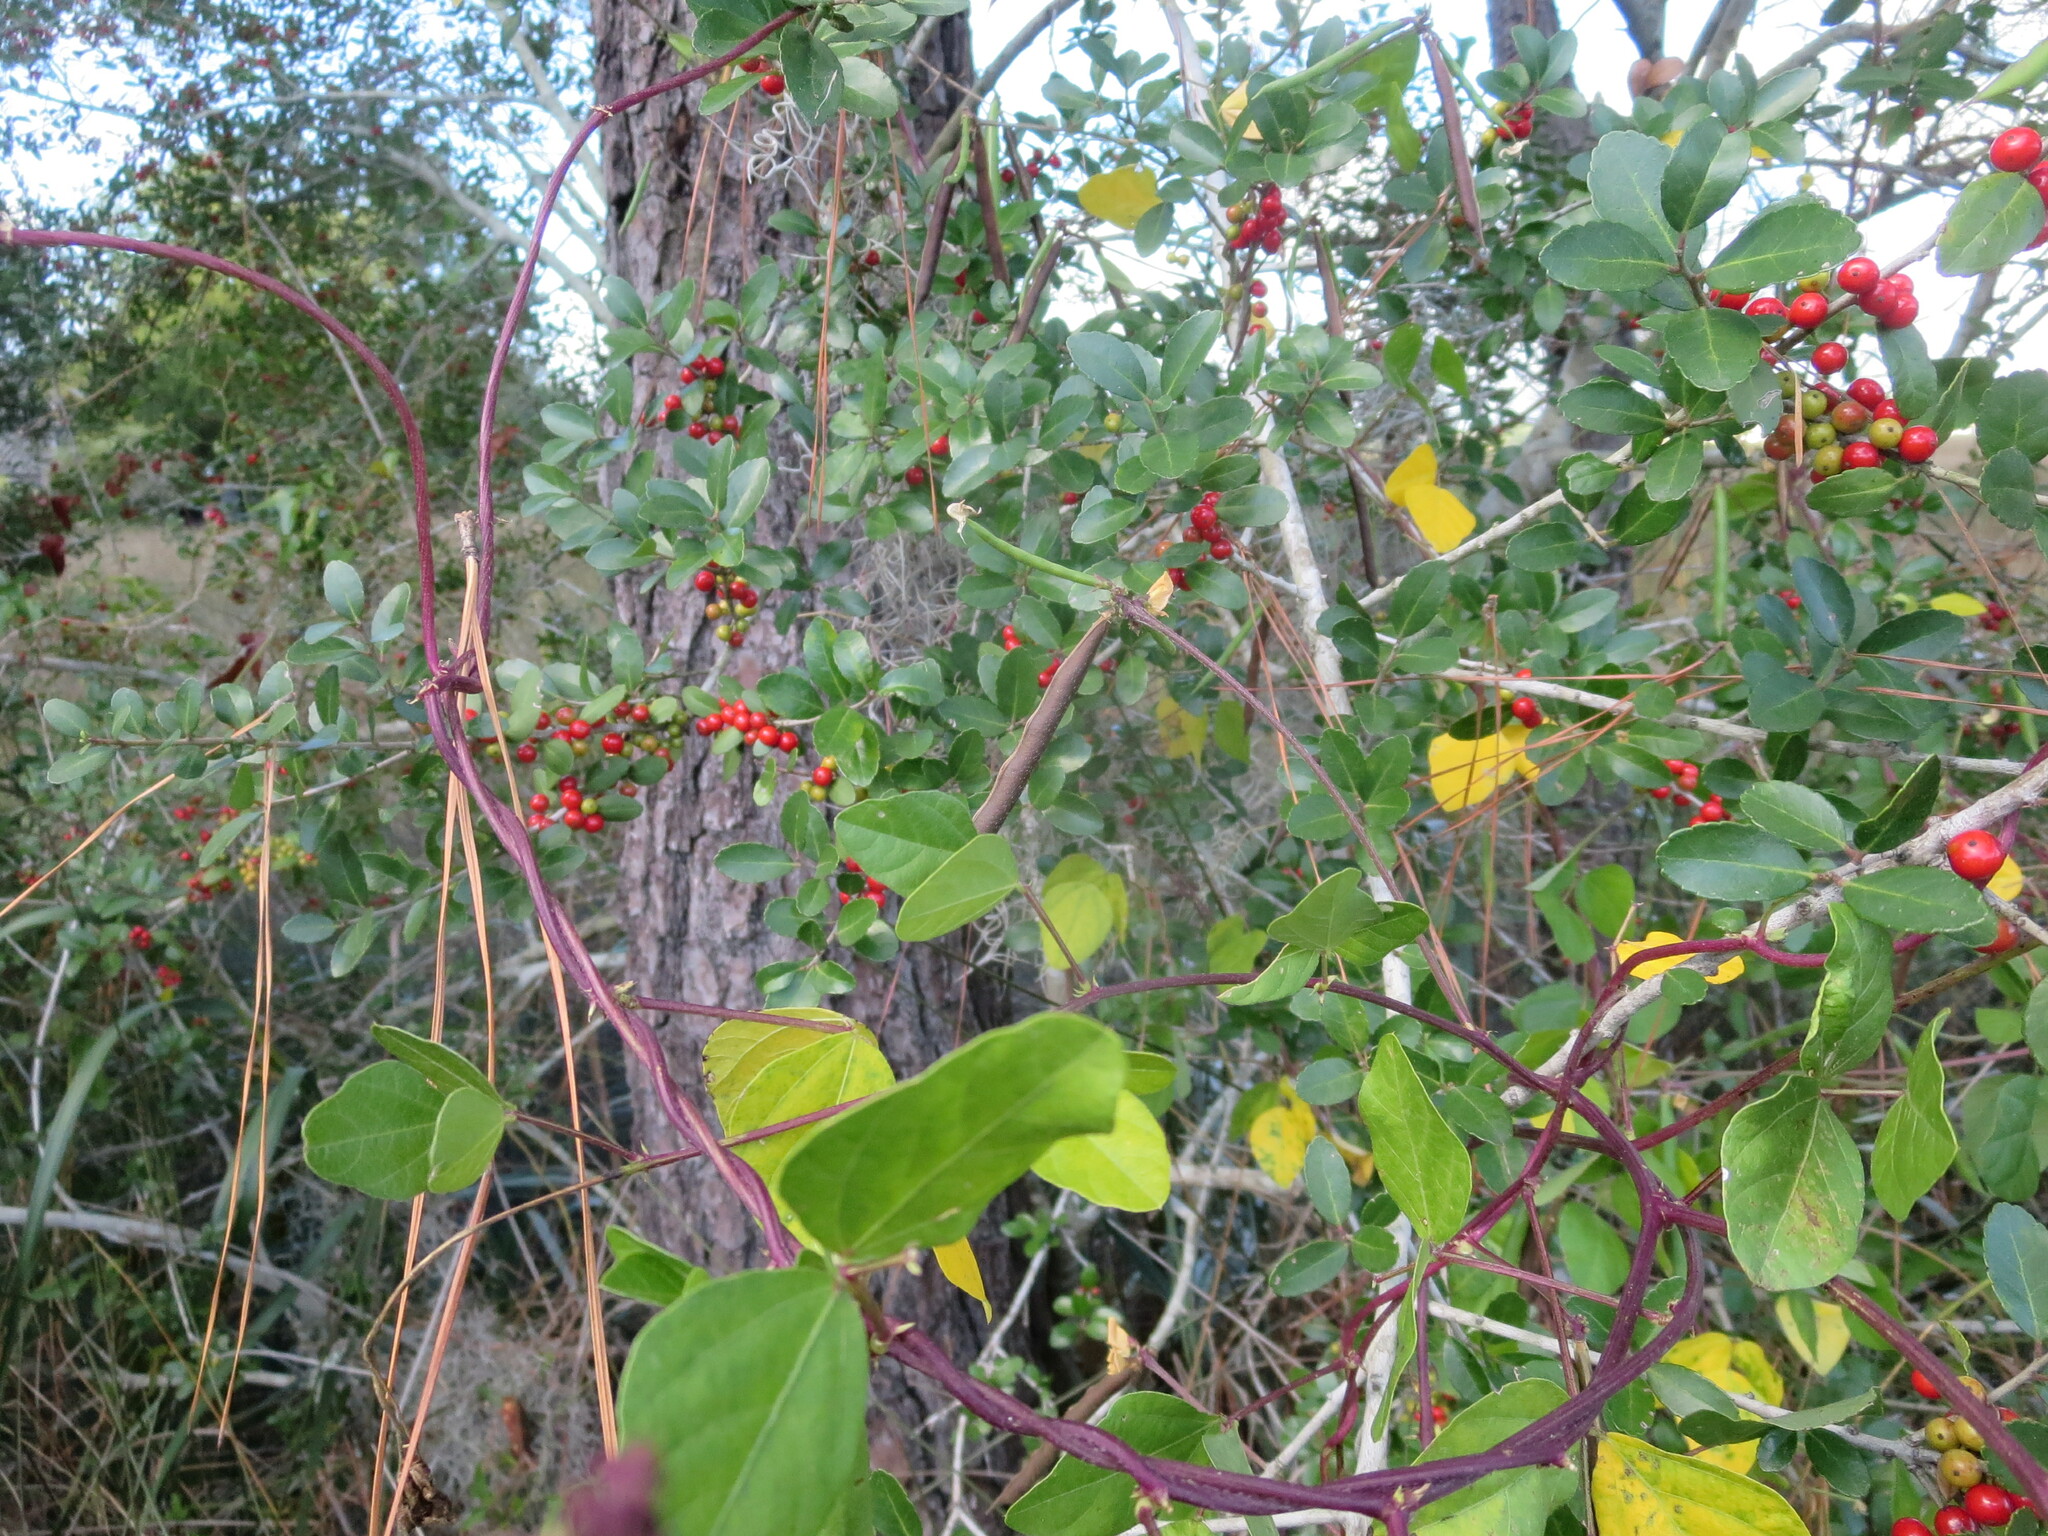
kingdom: Plantae
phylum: Tracheophyta
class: Magnoliopsida
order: Aquifoliales
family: Aquifoliaceae
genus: Ilex
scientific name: Ilex vomitoria
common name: Yaupon holly
